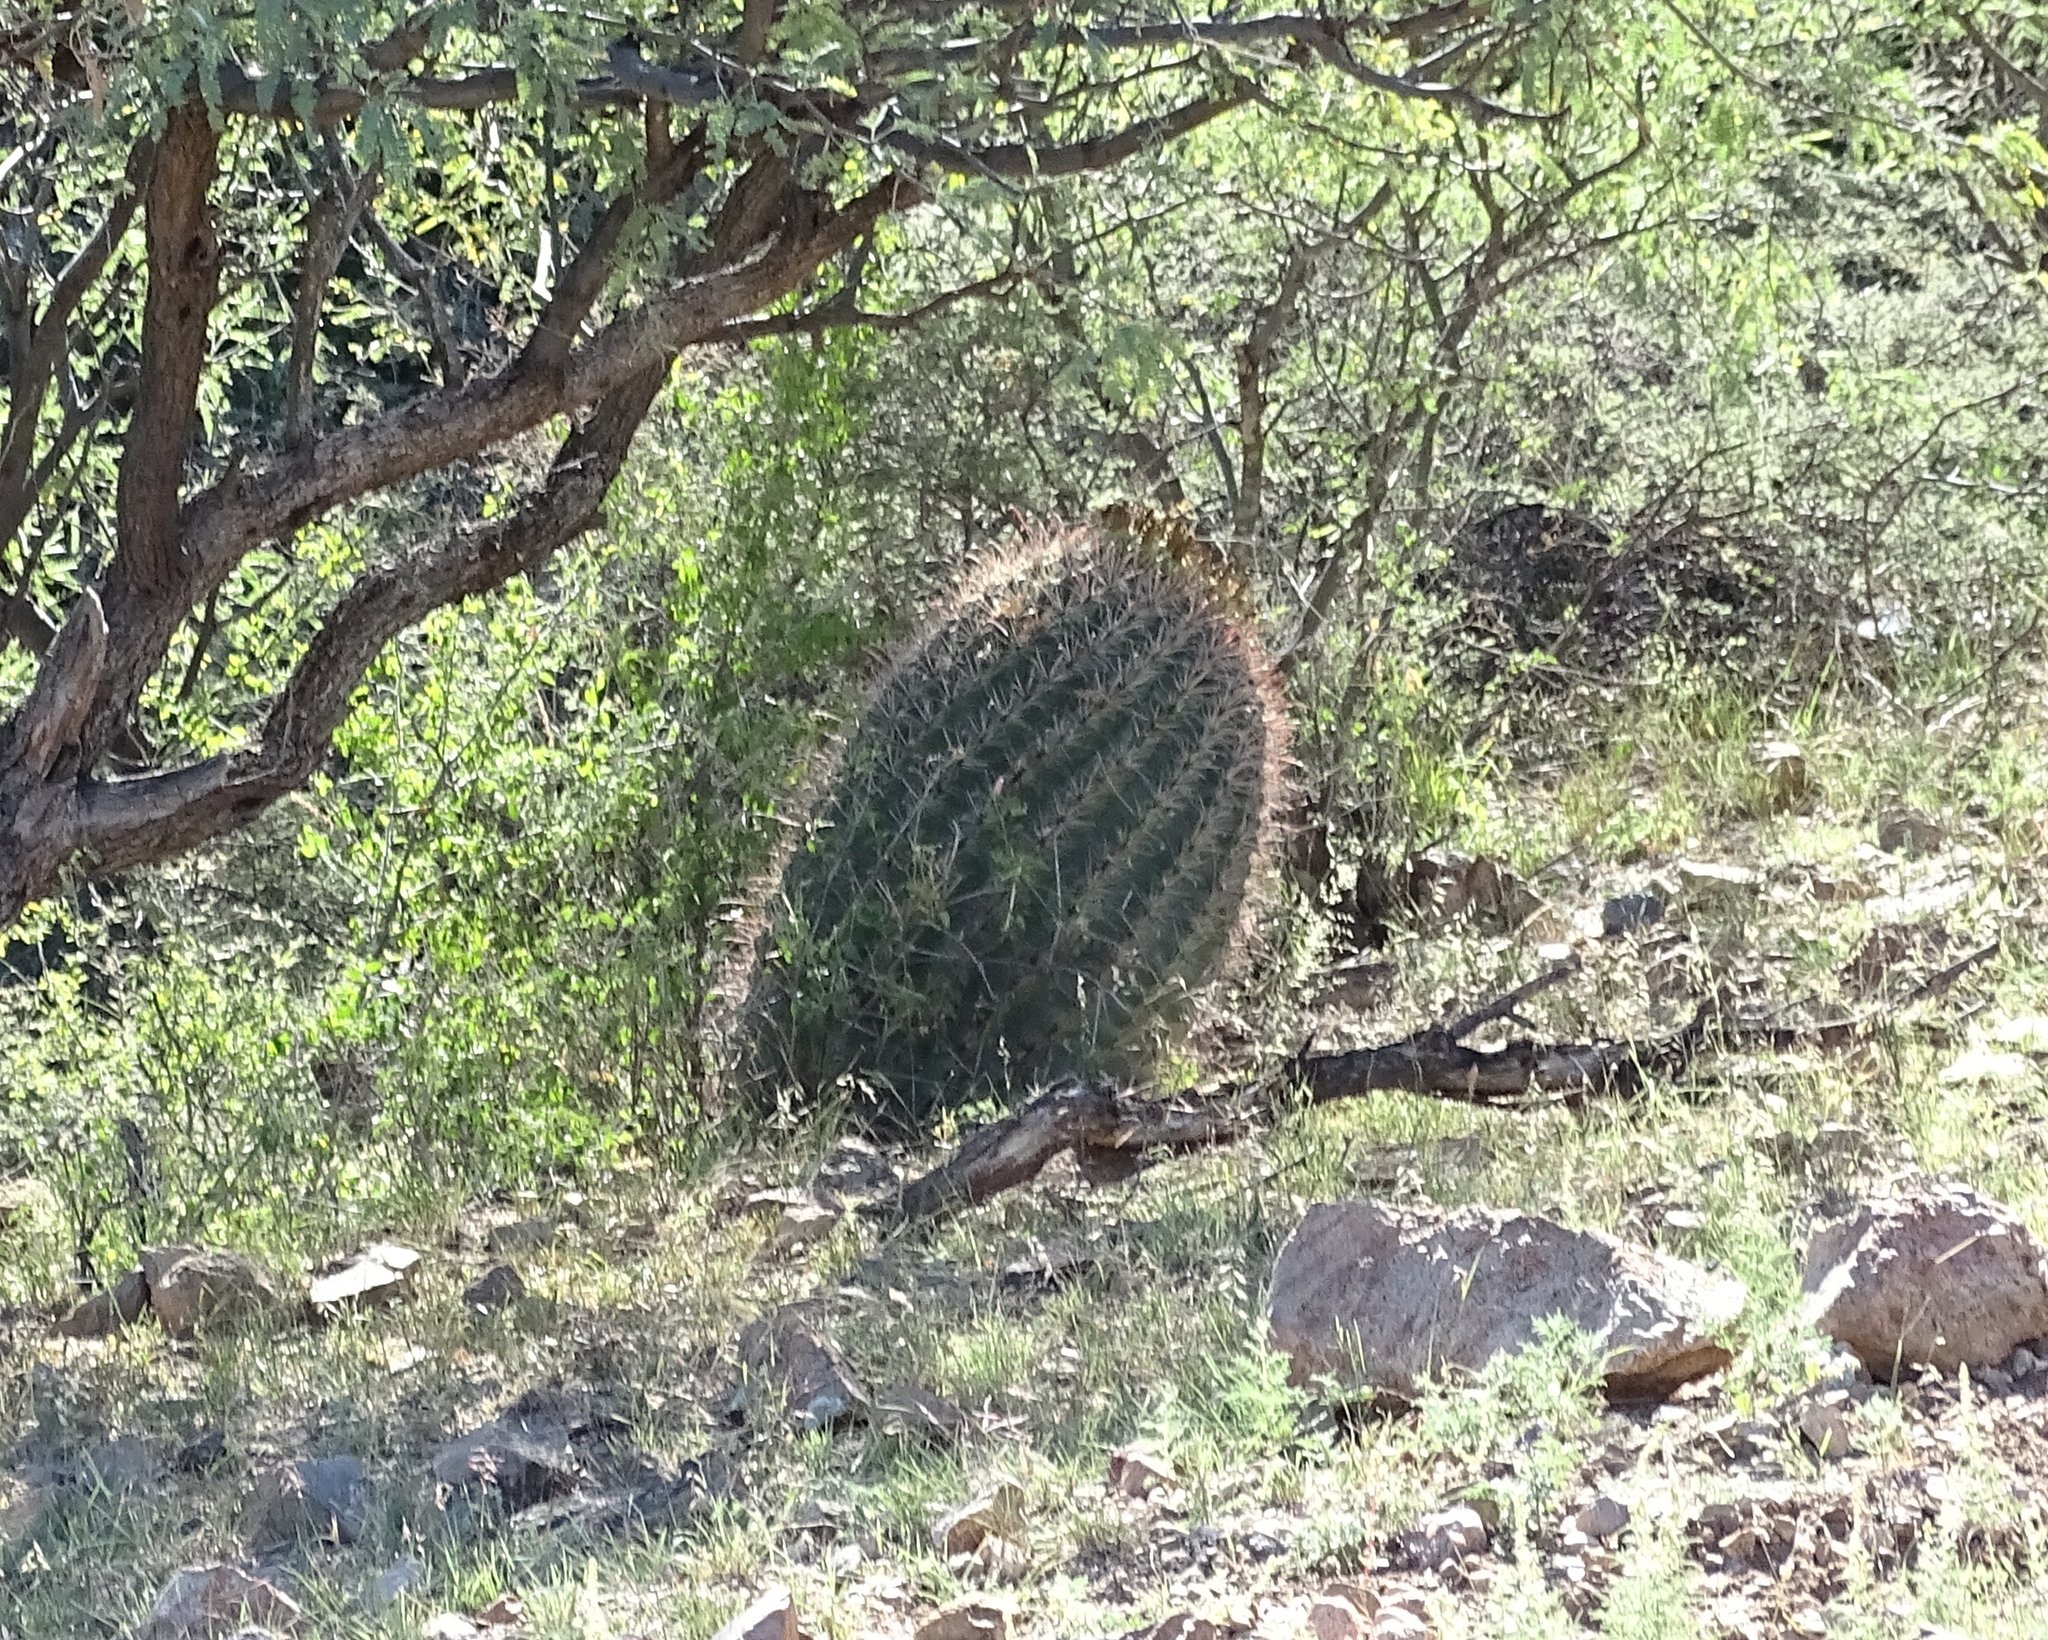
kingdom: Plantae
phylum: Tracheophyta
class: Magnoliopsida
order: Caryophyllales
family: Cactaceae
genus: Ferocactus
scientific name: Ferocactus wislizeni
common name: Candy barrel cactus
